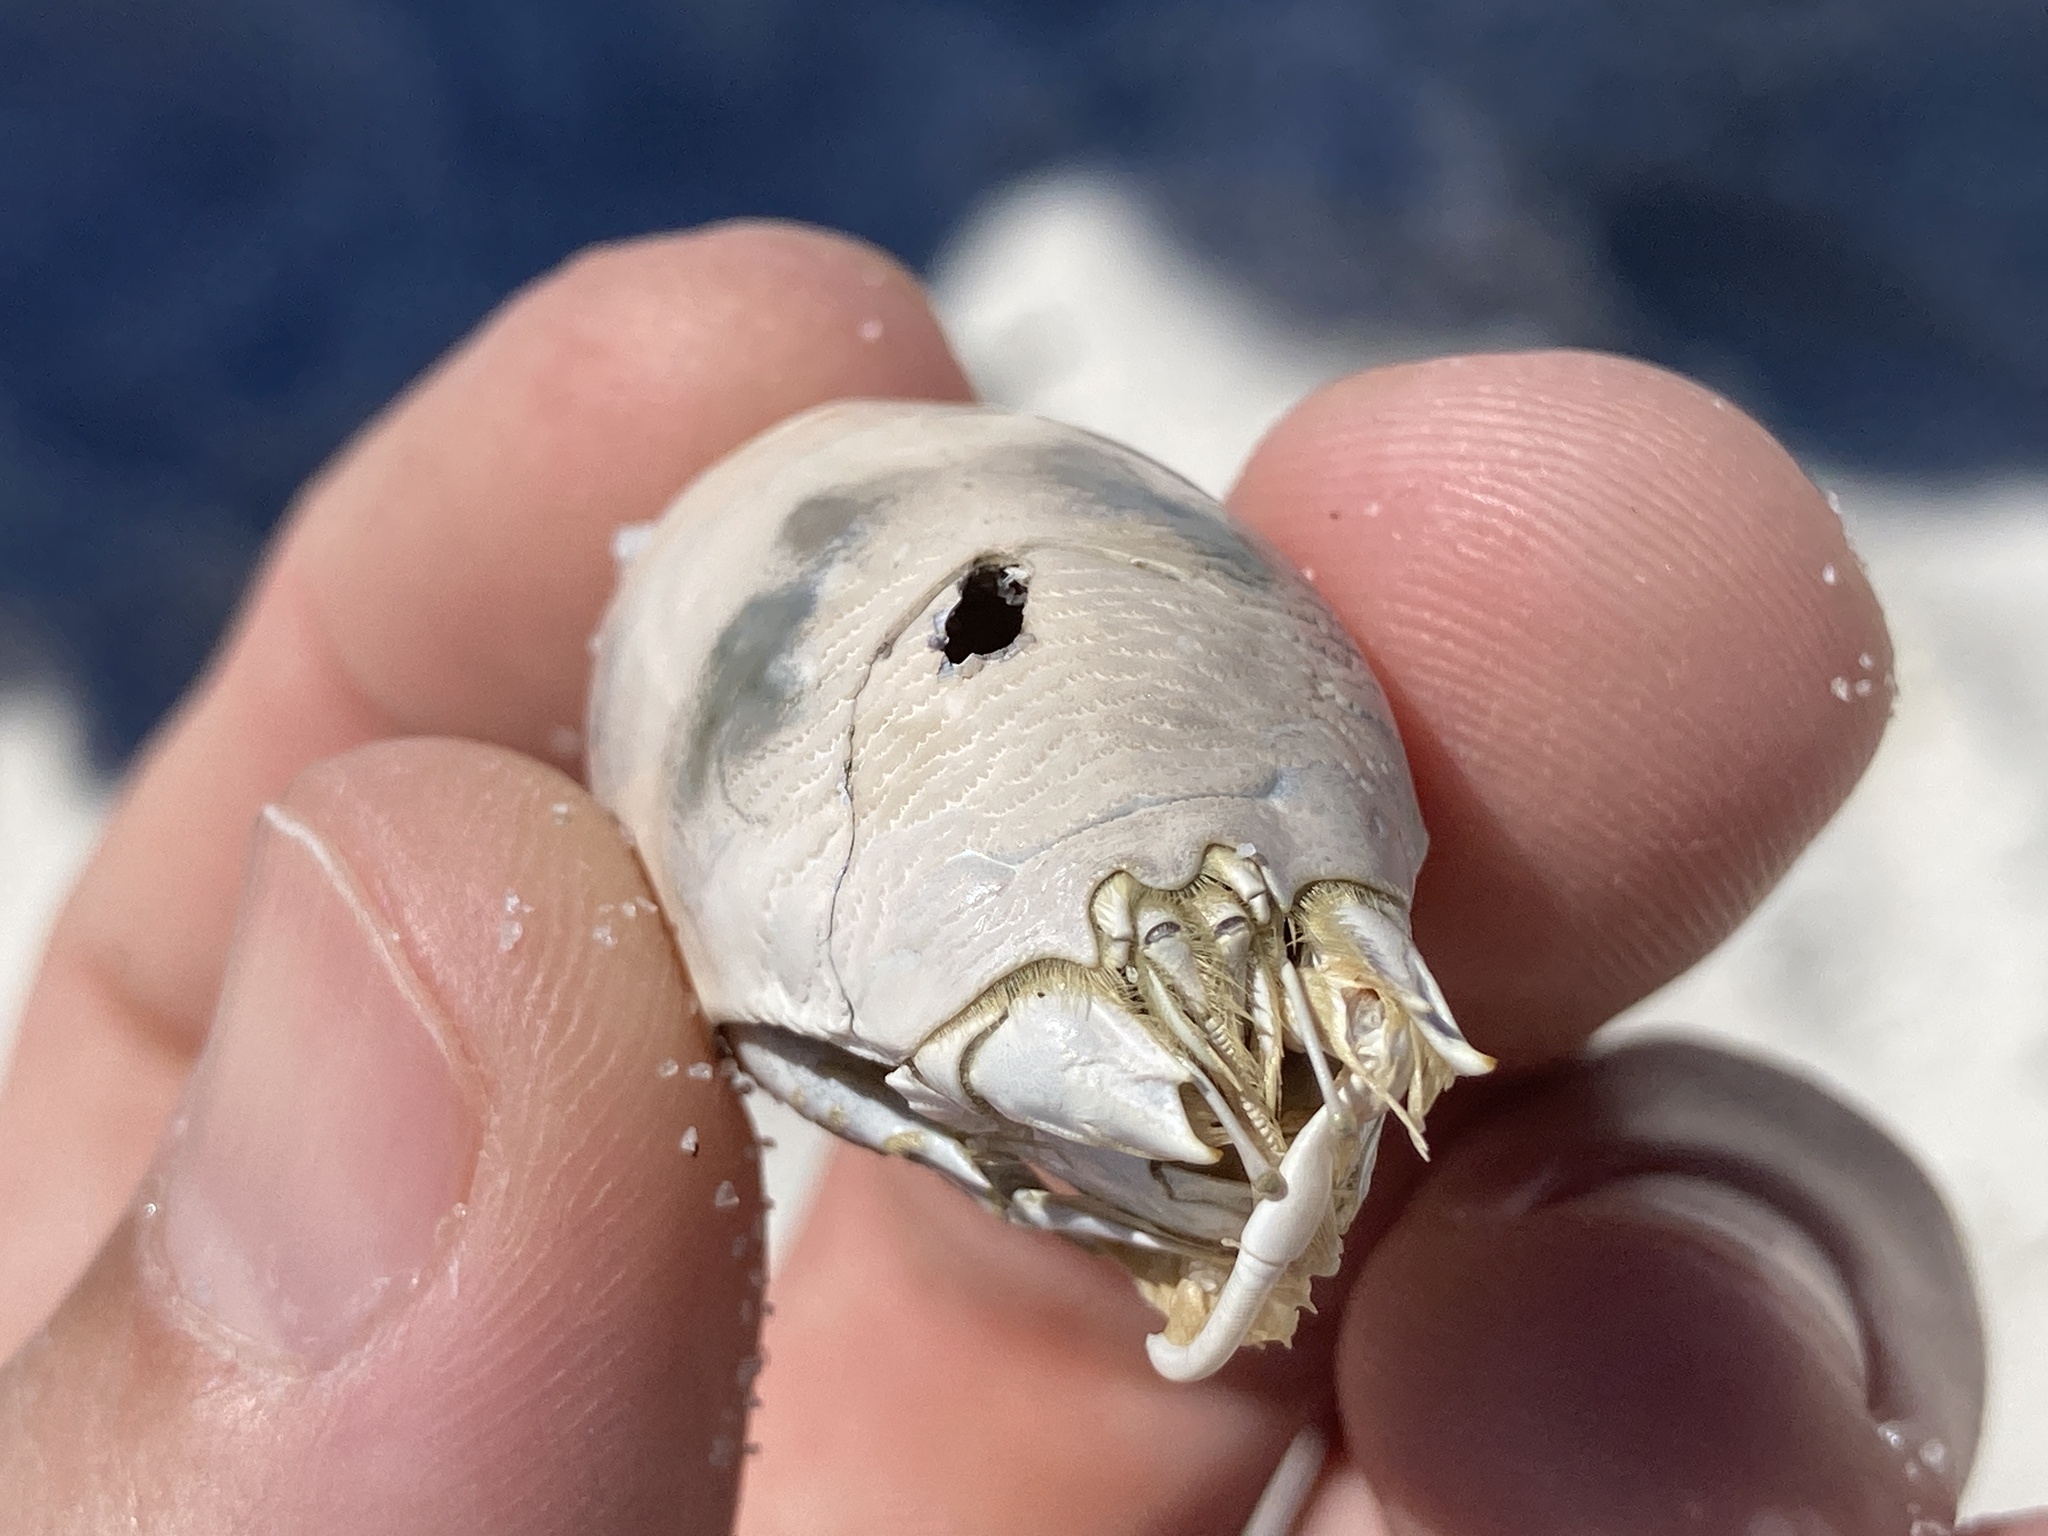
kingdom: Animalia
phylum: Arthropoda
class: Malacostraca
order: Decapoda
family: Hippidae
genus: Emerita
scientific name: Emerita talpoida
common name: Atlantic sand crab
